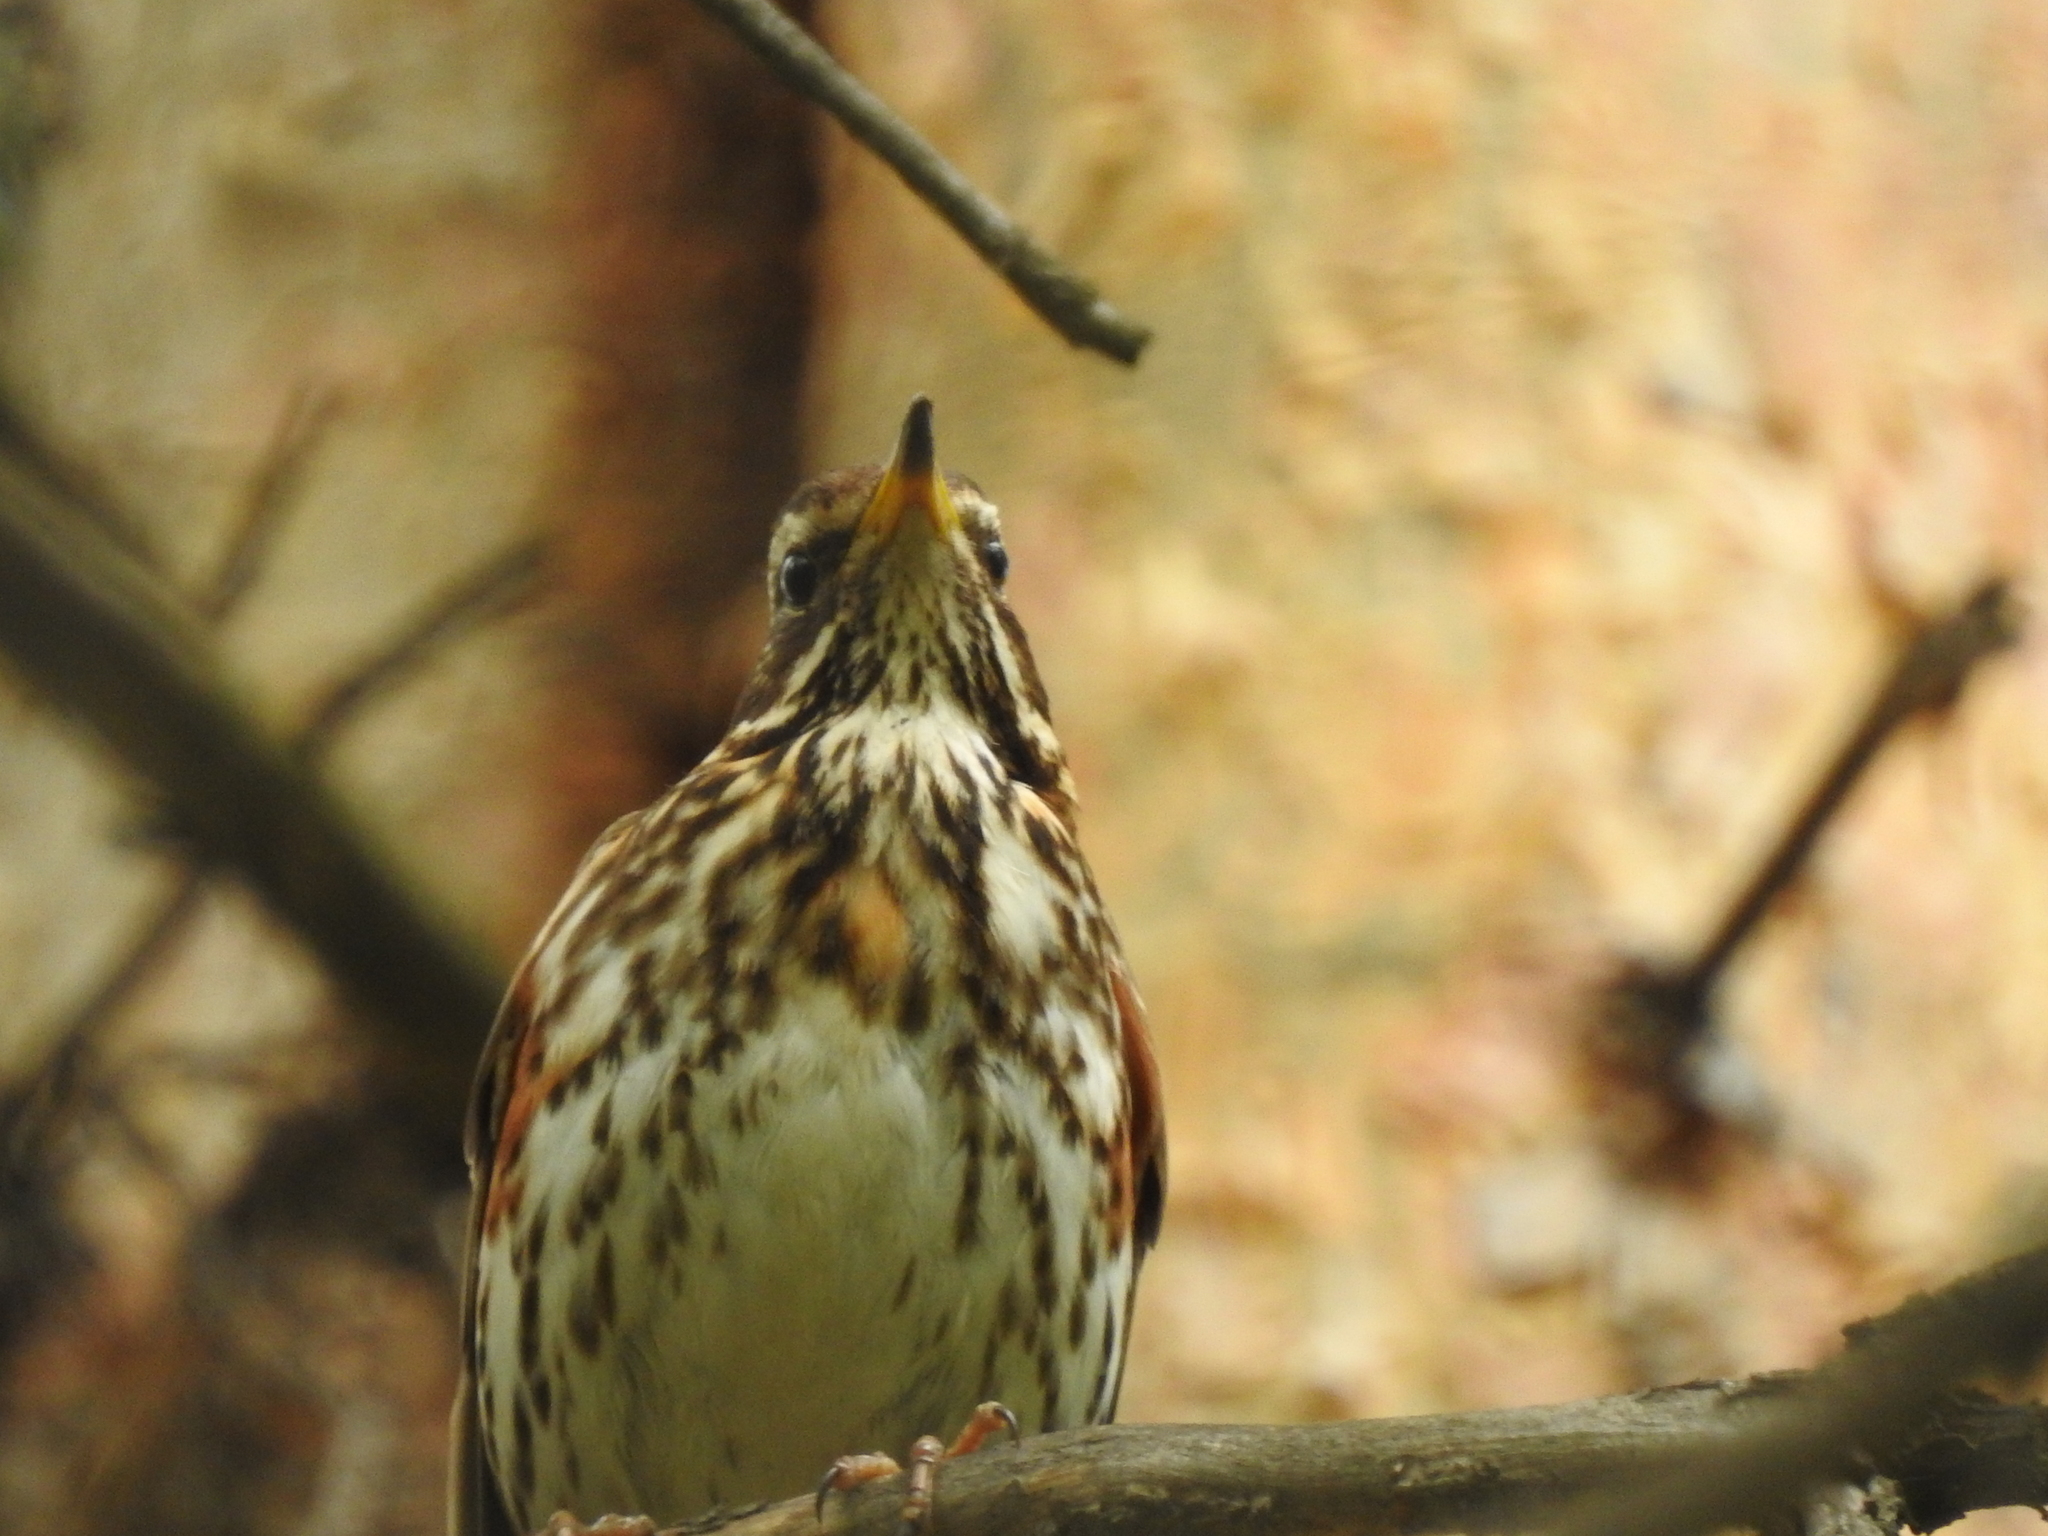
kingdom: Animalia
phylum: Chordata
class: Aves
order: Passeriformes
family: Turdidae
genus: Turdus
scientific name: Turdus iliacus
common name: Redwing
